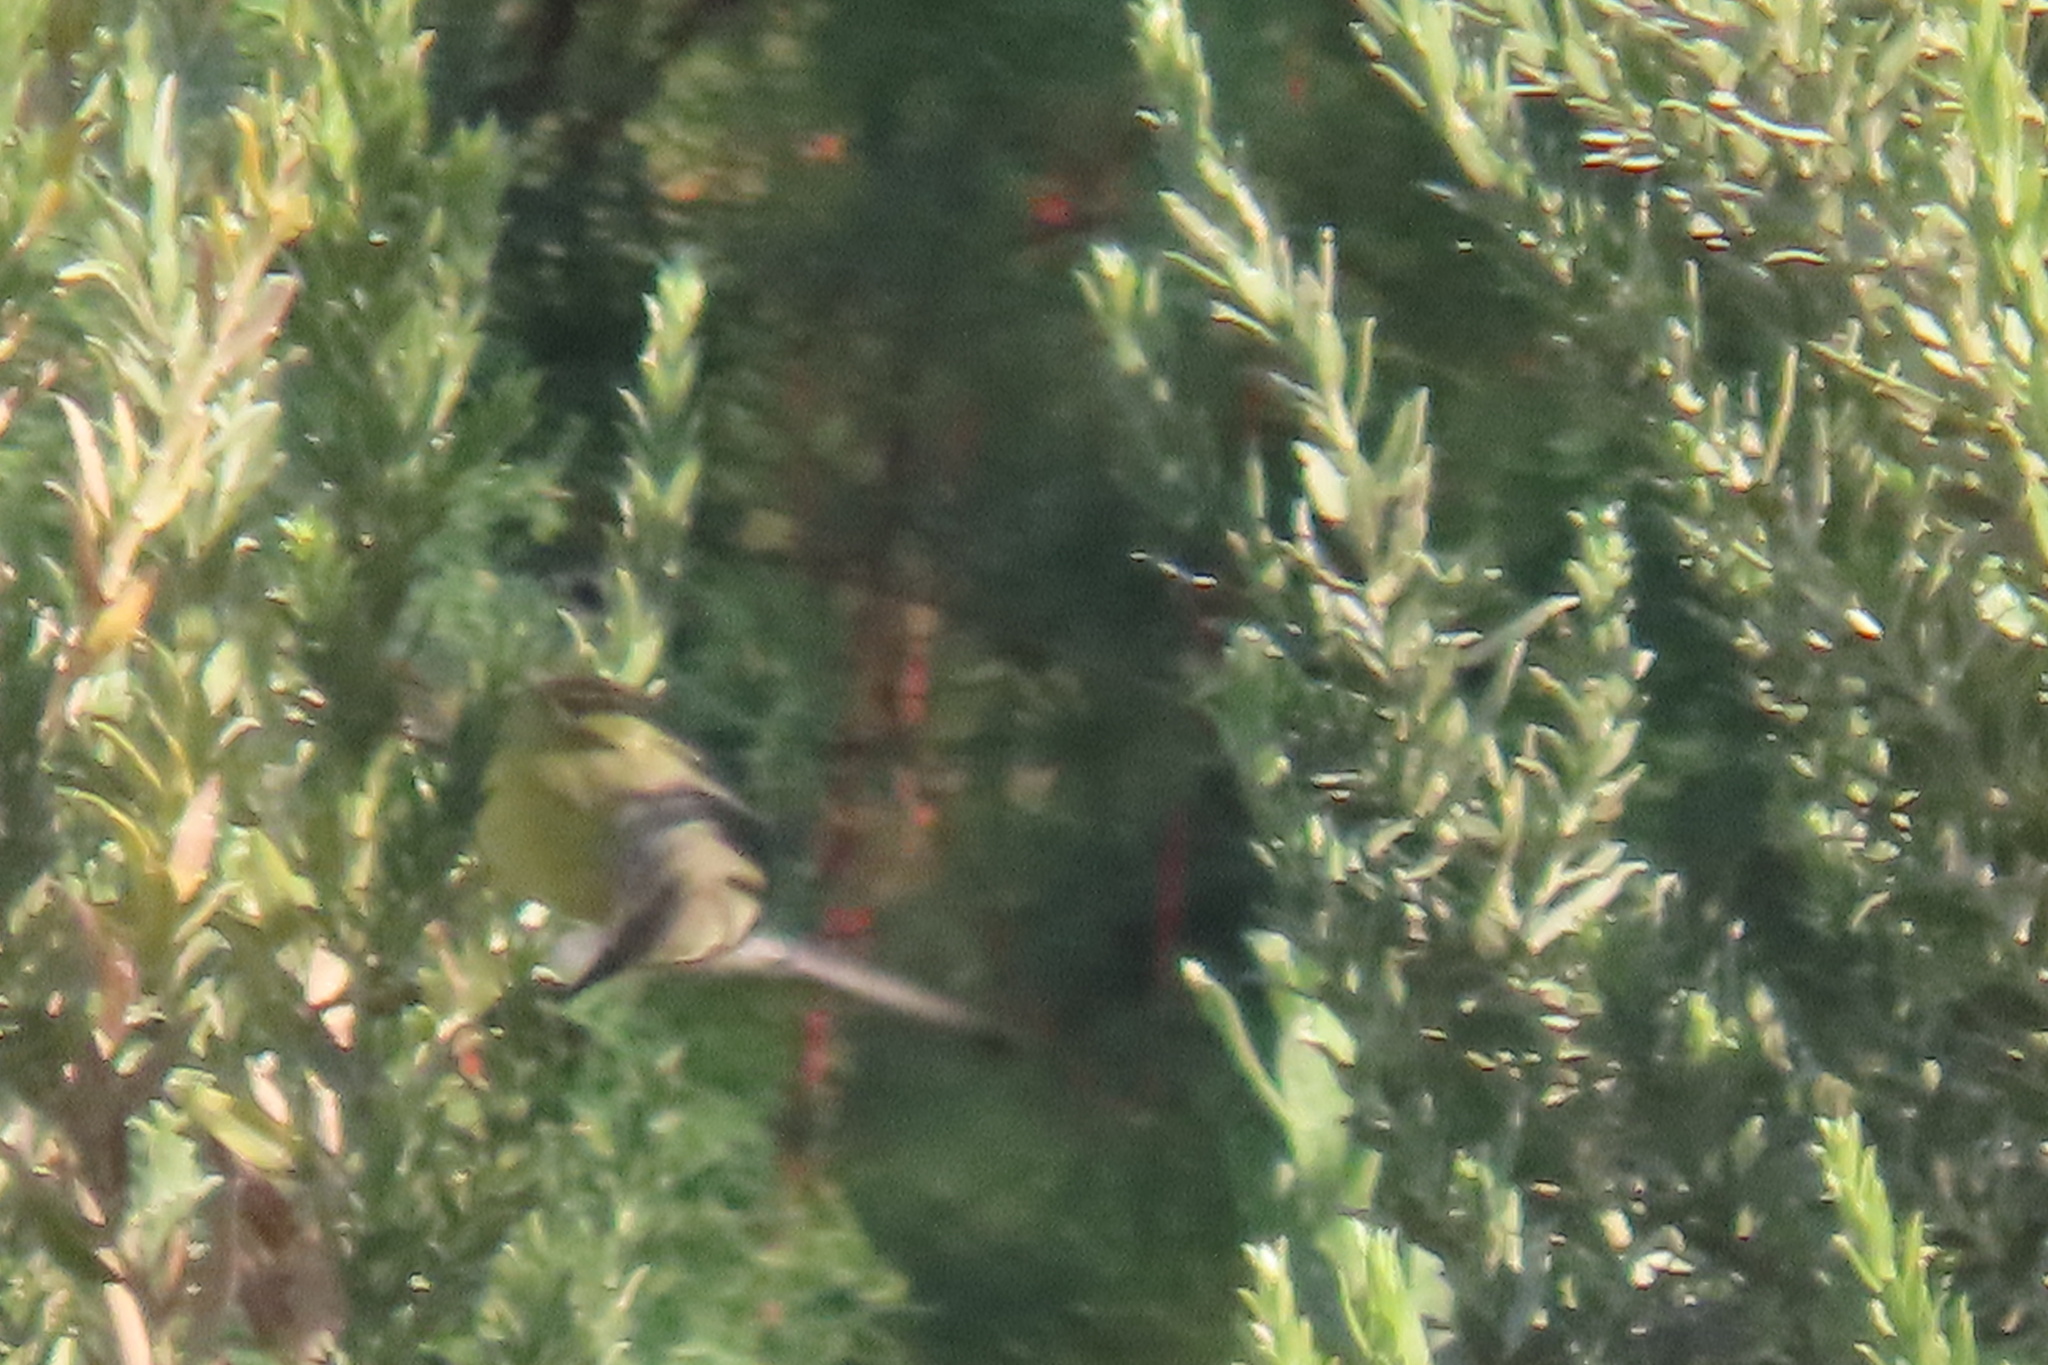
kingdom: Animalia
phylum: Chordata
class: Aves
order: Passeriformes
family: Parulidae
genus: Leiothlypis
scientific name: Leiothlypis celata
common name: Orange-crowned warbler
